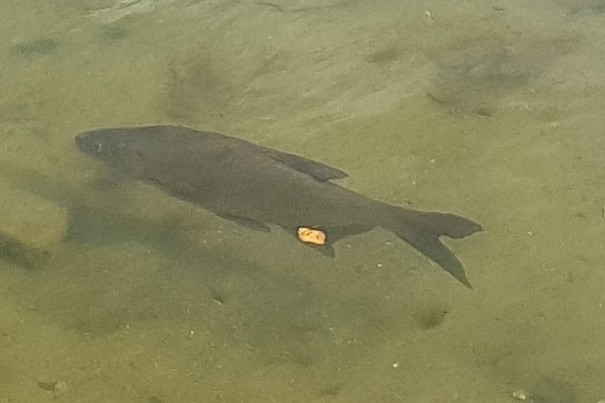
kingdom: Animalia
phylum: Chordata
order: Cypriniformes
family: Cyprinidae
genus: Abramis
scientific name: Abramis brama
